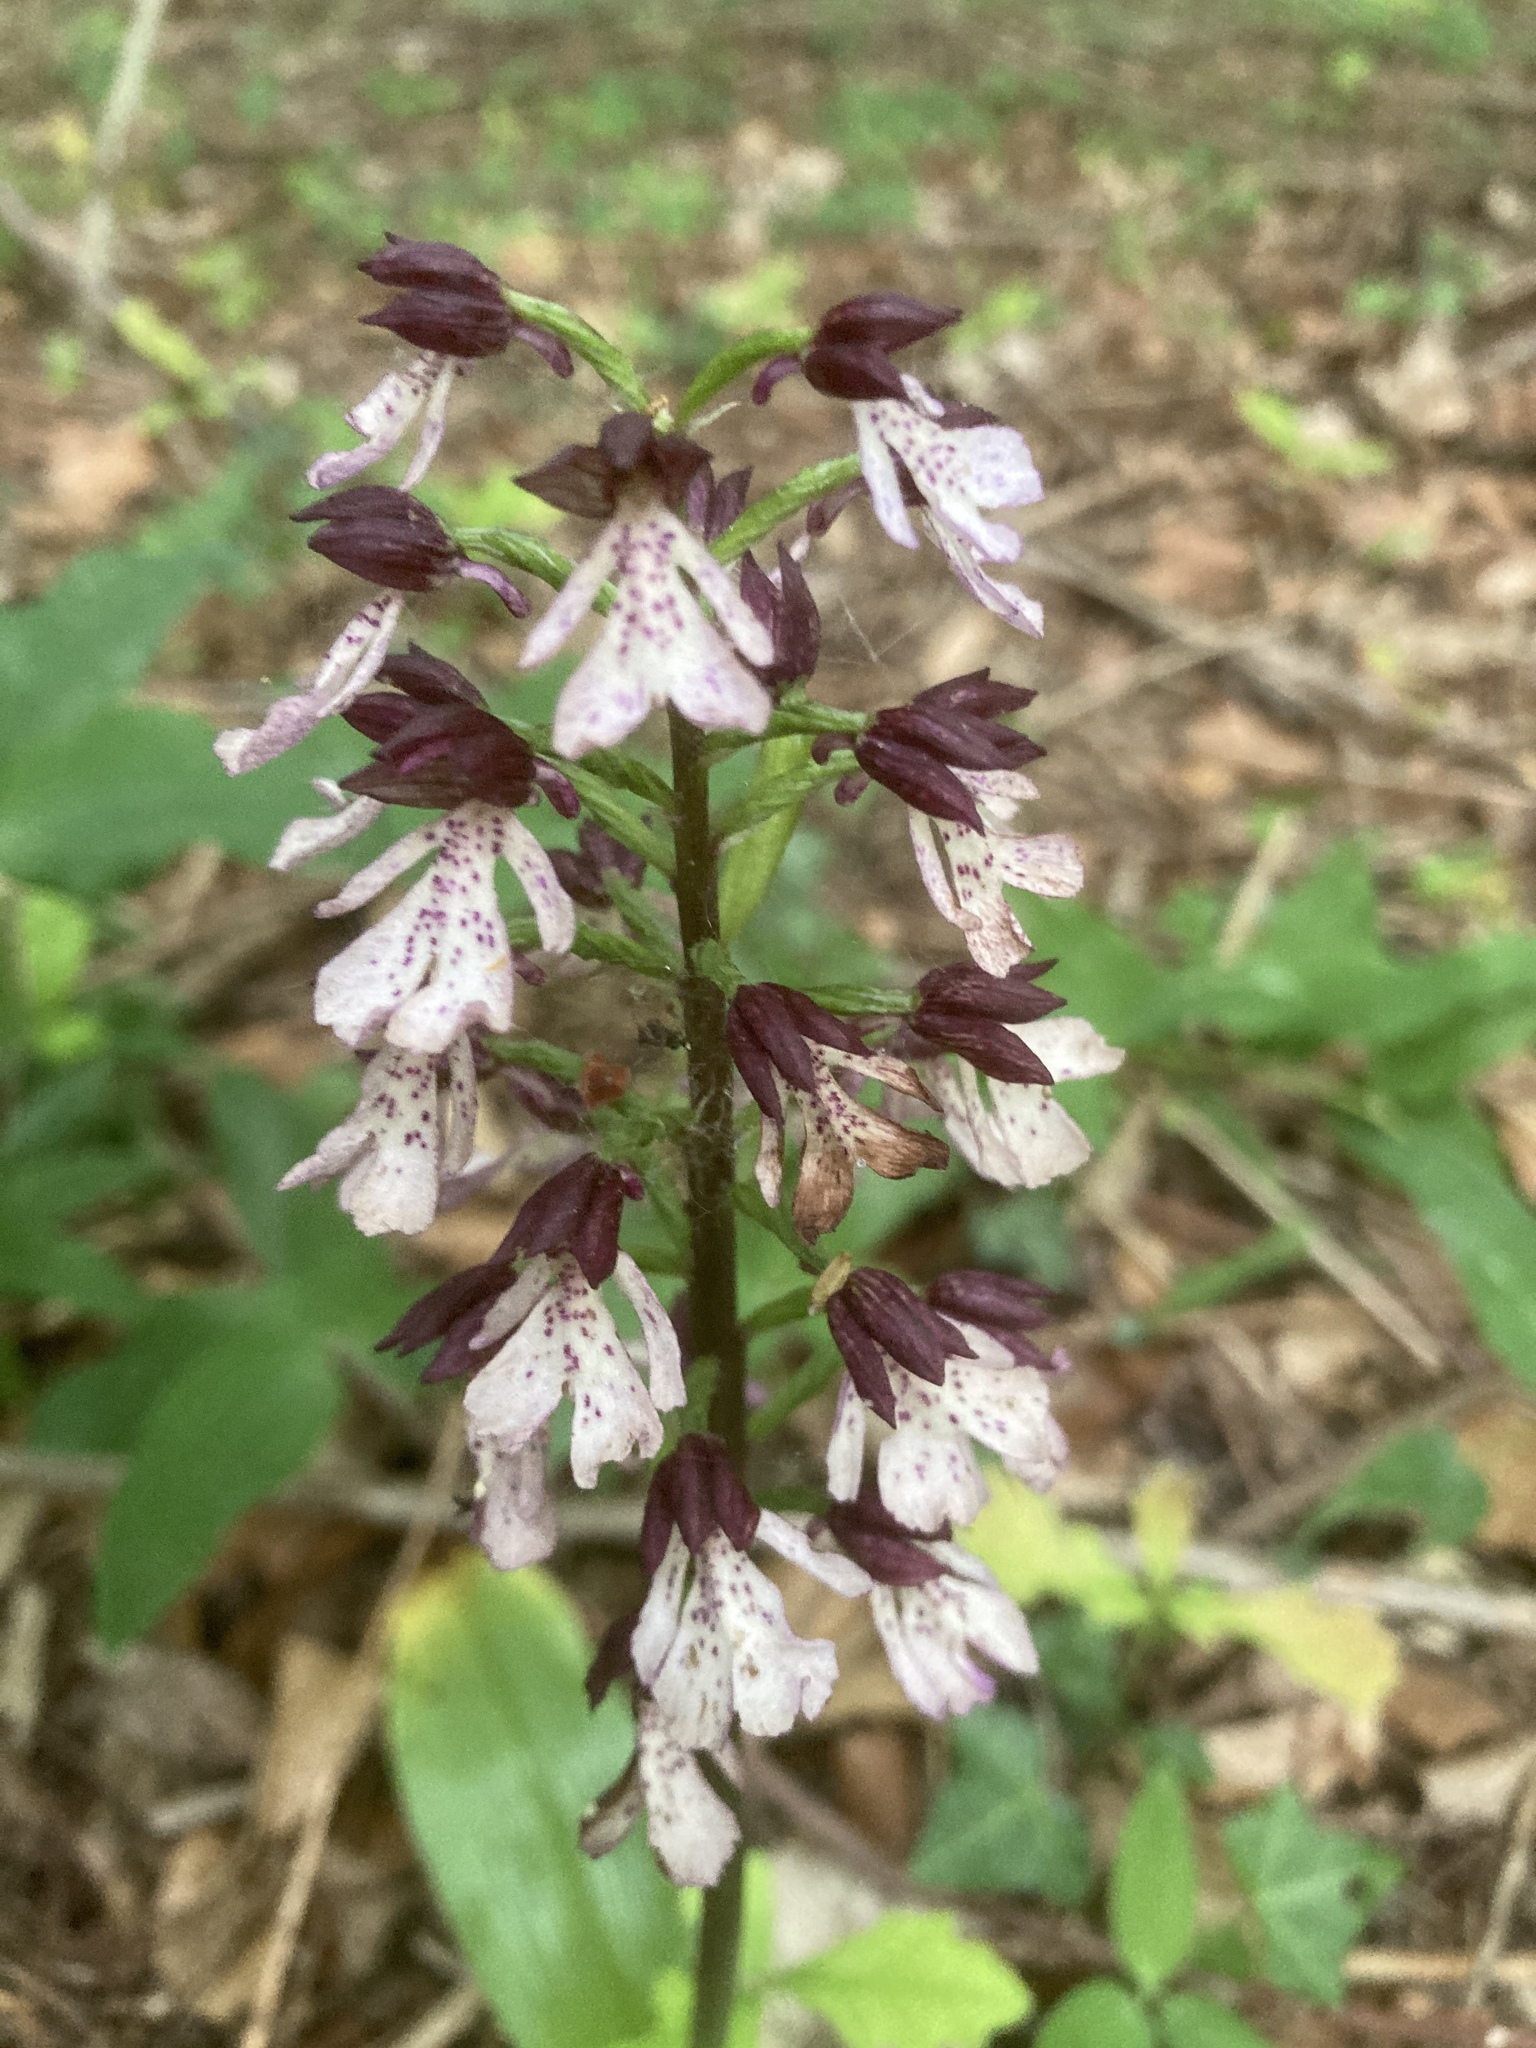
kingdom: Plantae
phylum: Tracheophyta
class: Liliopsida
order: Asparagales
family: Orchidaceae
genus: Orchis
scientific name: Orchis purpurea
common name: Lady orchid
